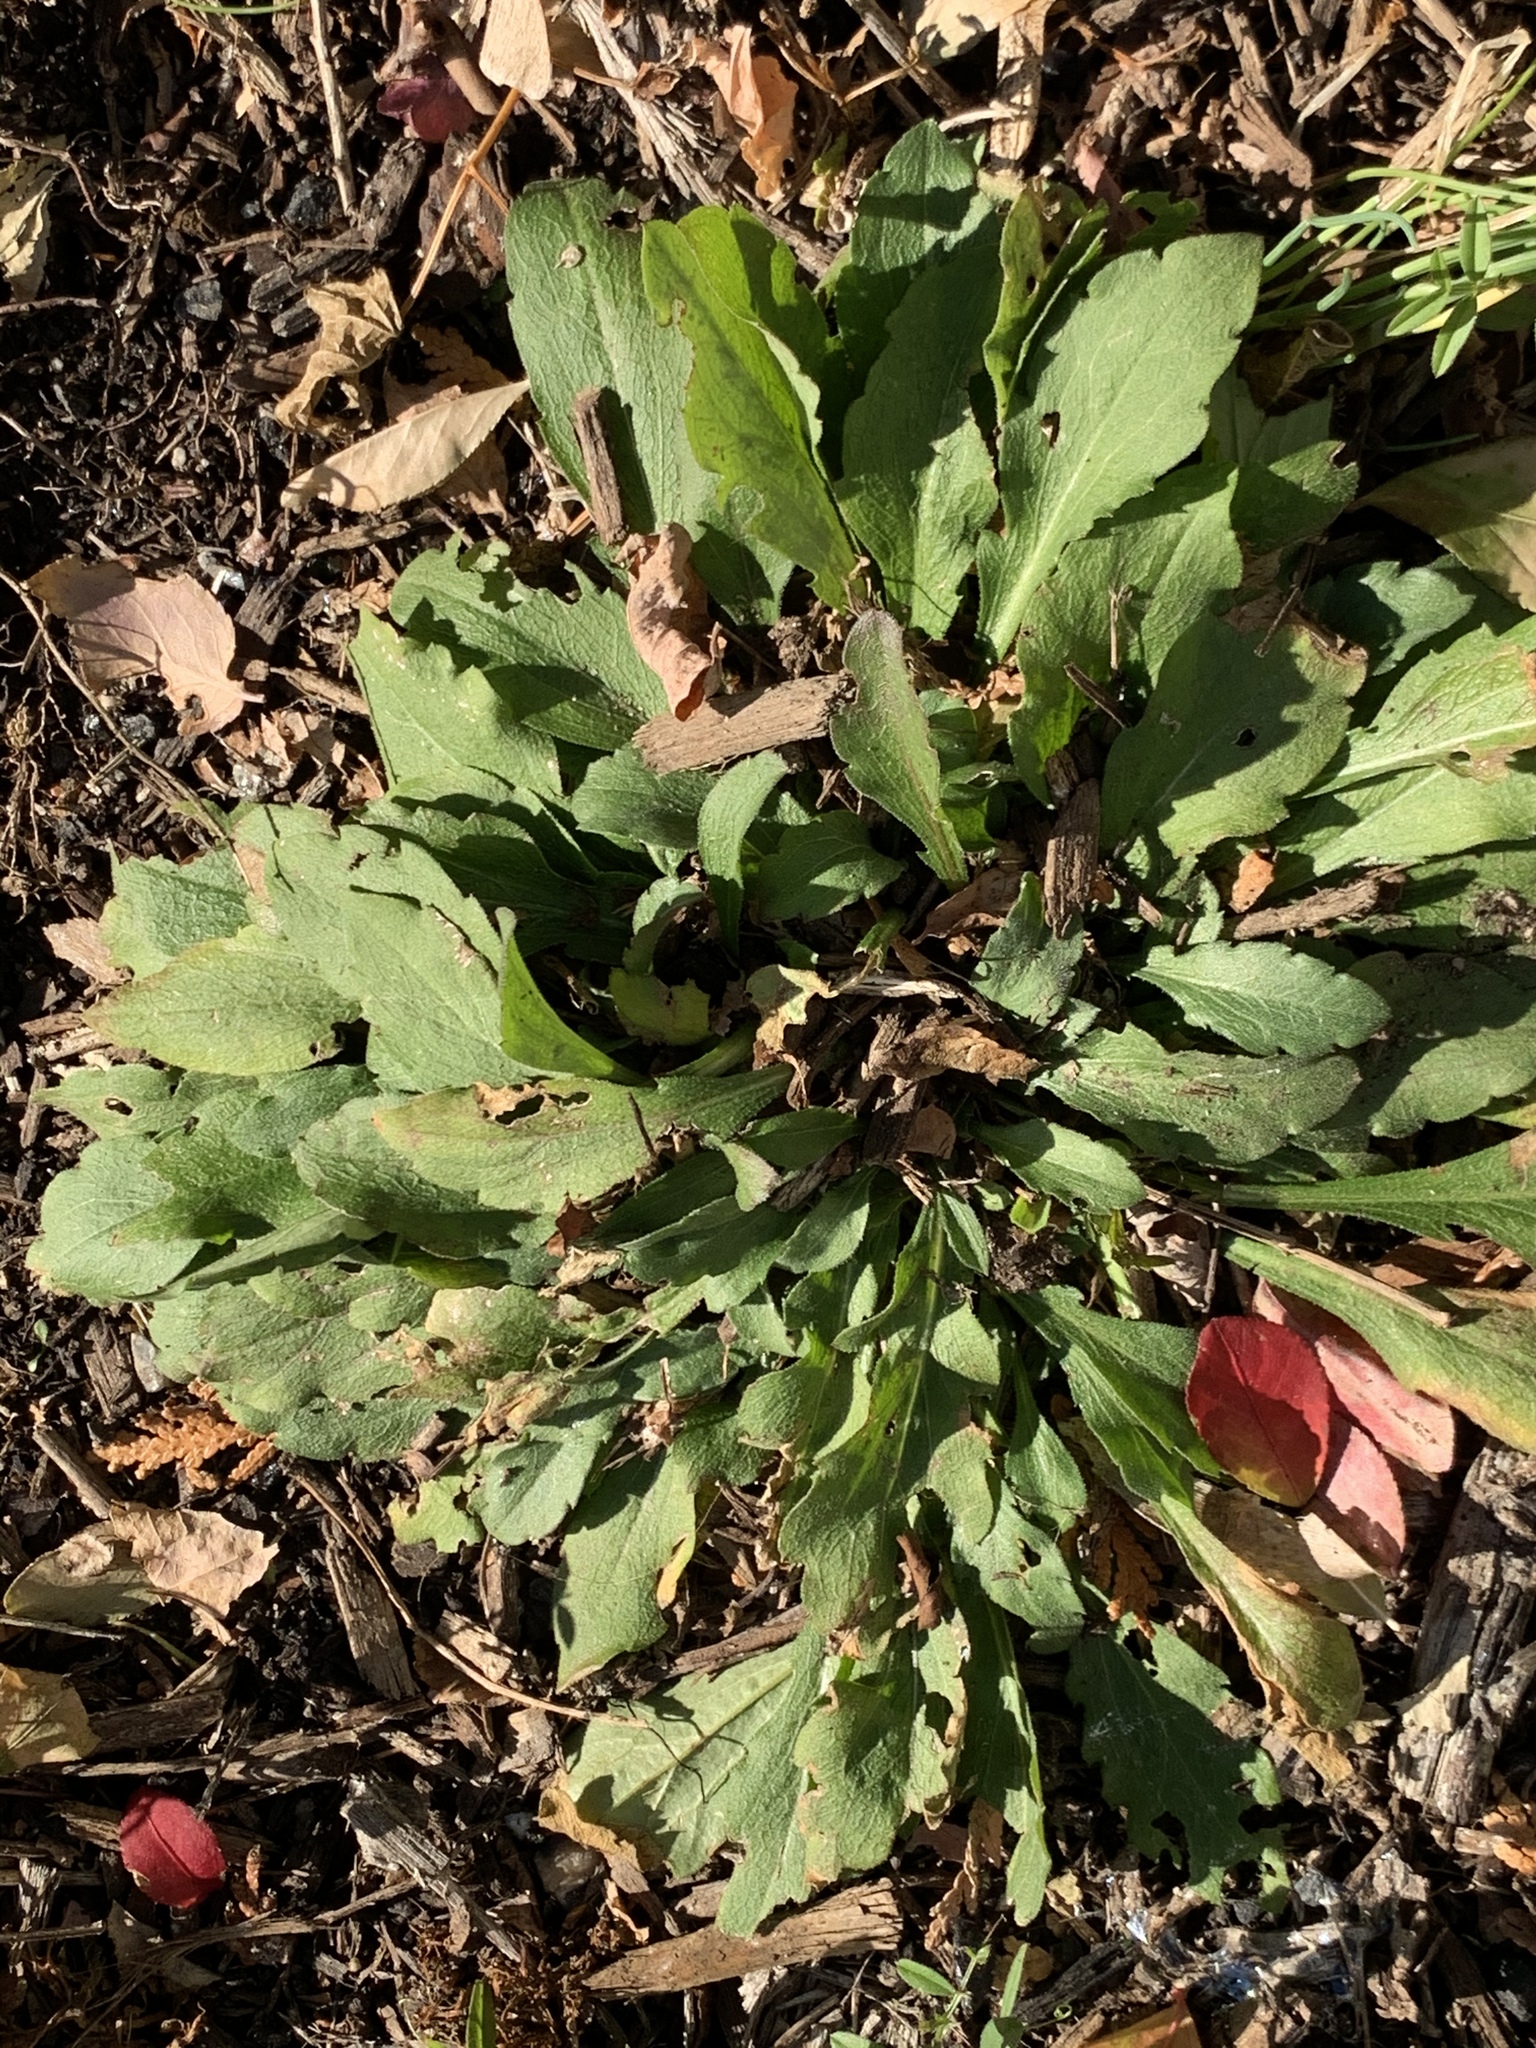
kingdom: Plantae
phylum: Tracheophyta
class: Magnoliopsida
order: Asterales
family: Asteraceae
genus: Erigeron
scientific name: Erigeron canadensis
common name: Canadian fleabane
